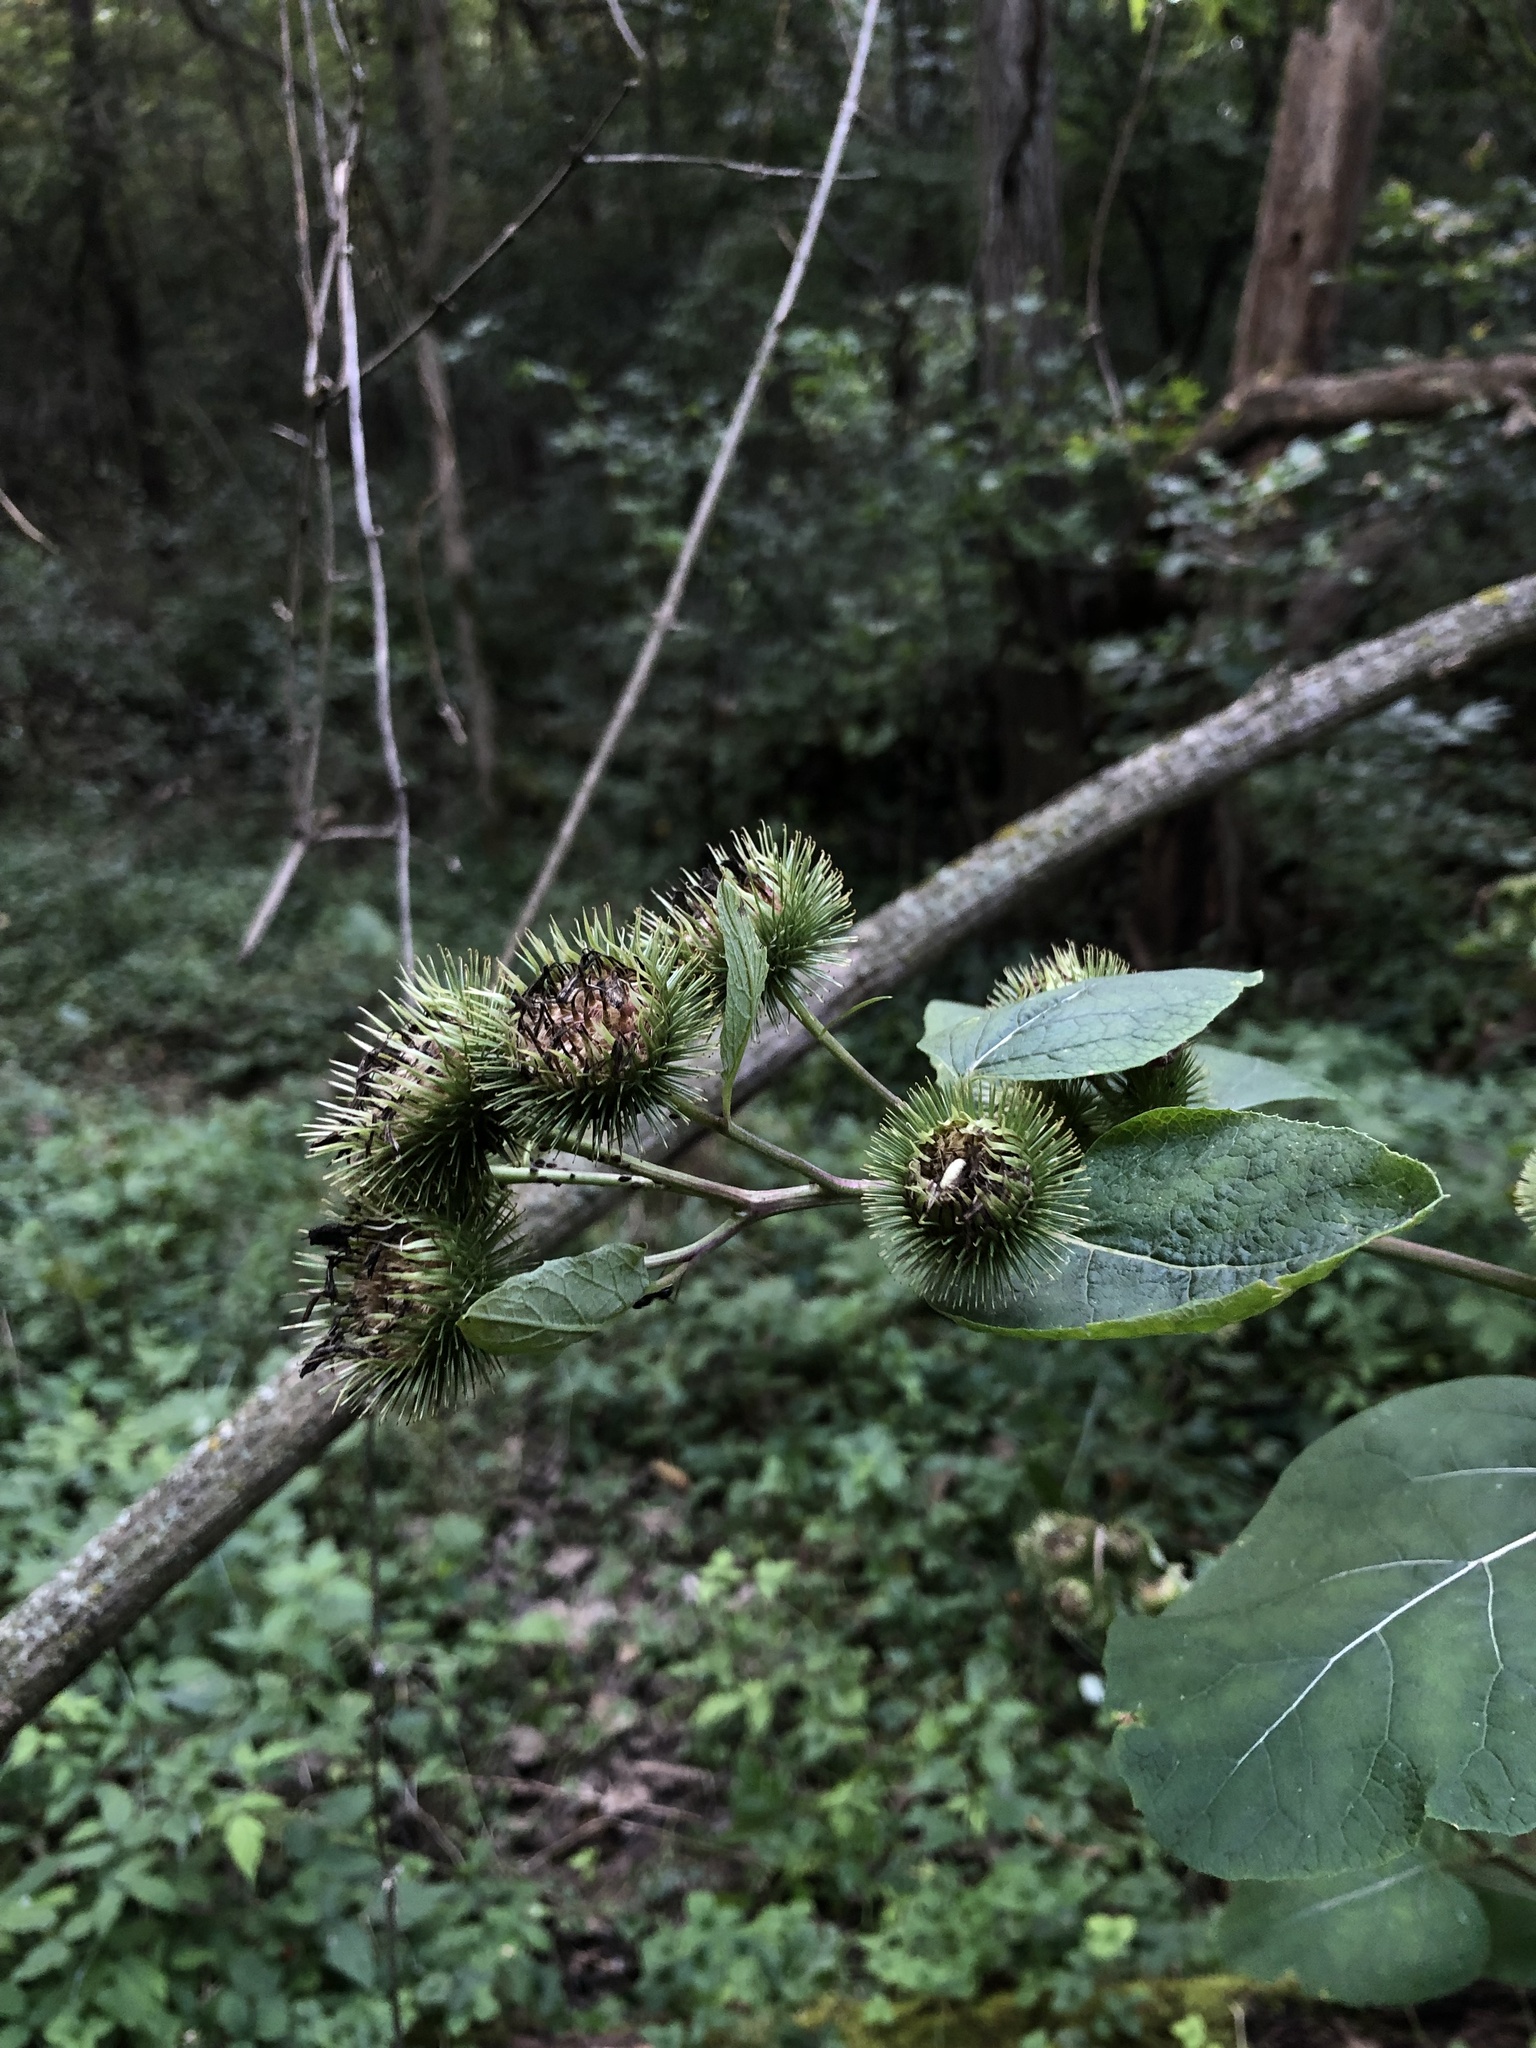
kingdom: Plantae
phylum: Tracheophyta
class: Magnoliopsida
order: Asterales
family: Asteraceae
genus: Arctium
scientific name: Arctium lappa
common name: Greater burdock
